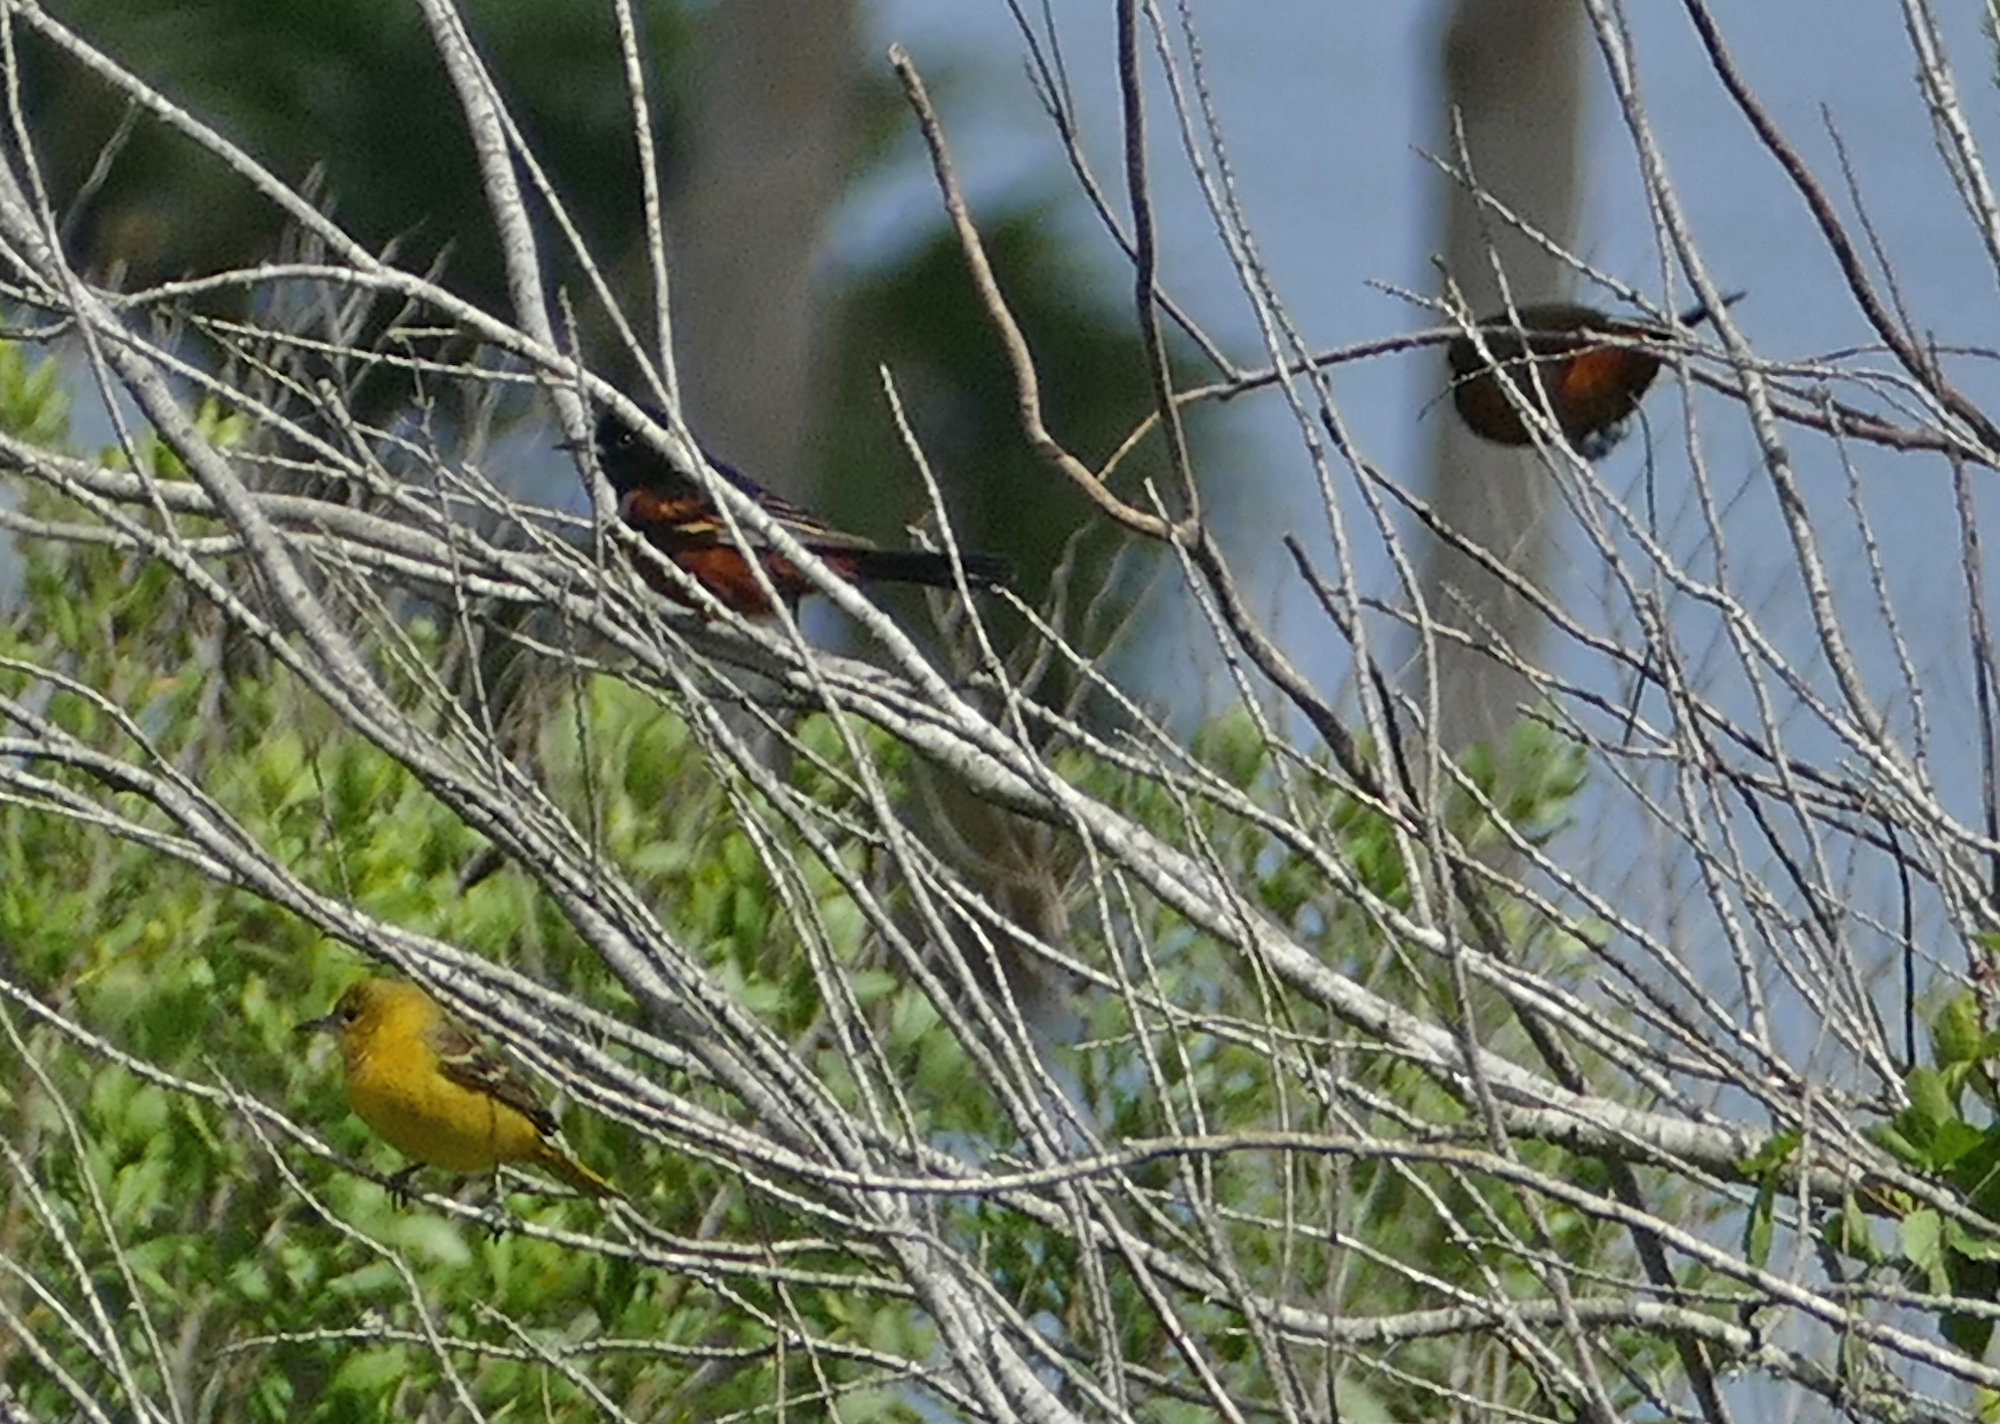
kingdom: Animalia
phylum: Chordata
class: Aves
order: Passeriformes
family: Icteridae
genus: Icterus
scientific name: Icterus spurius
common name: Orchard oriole
